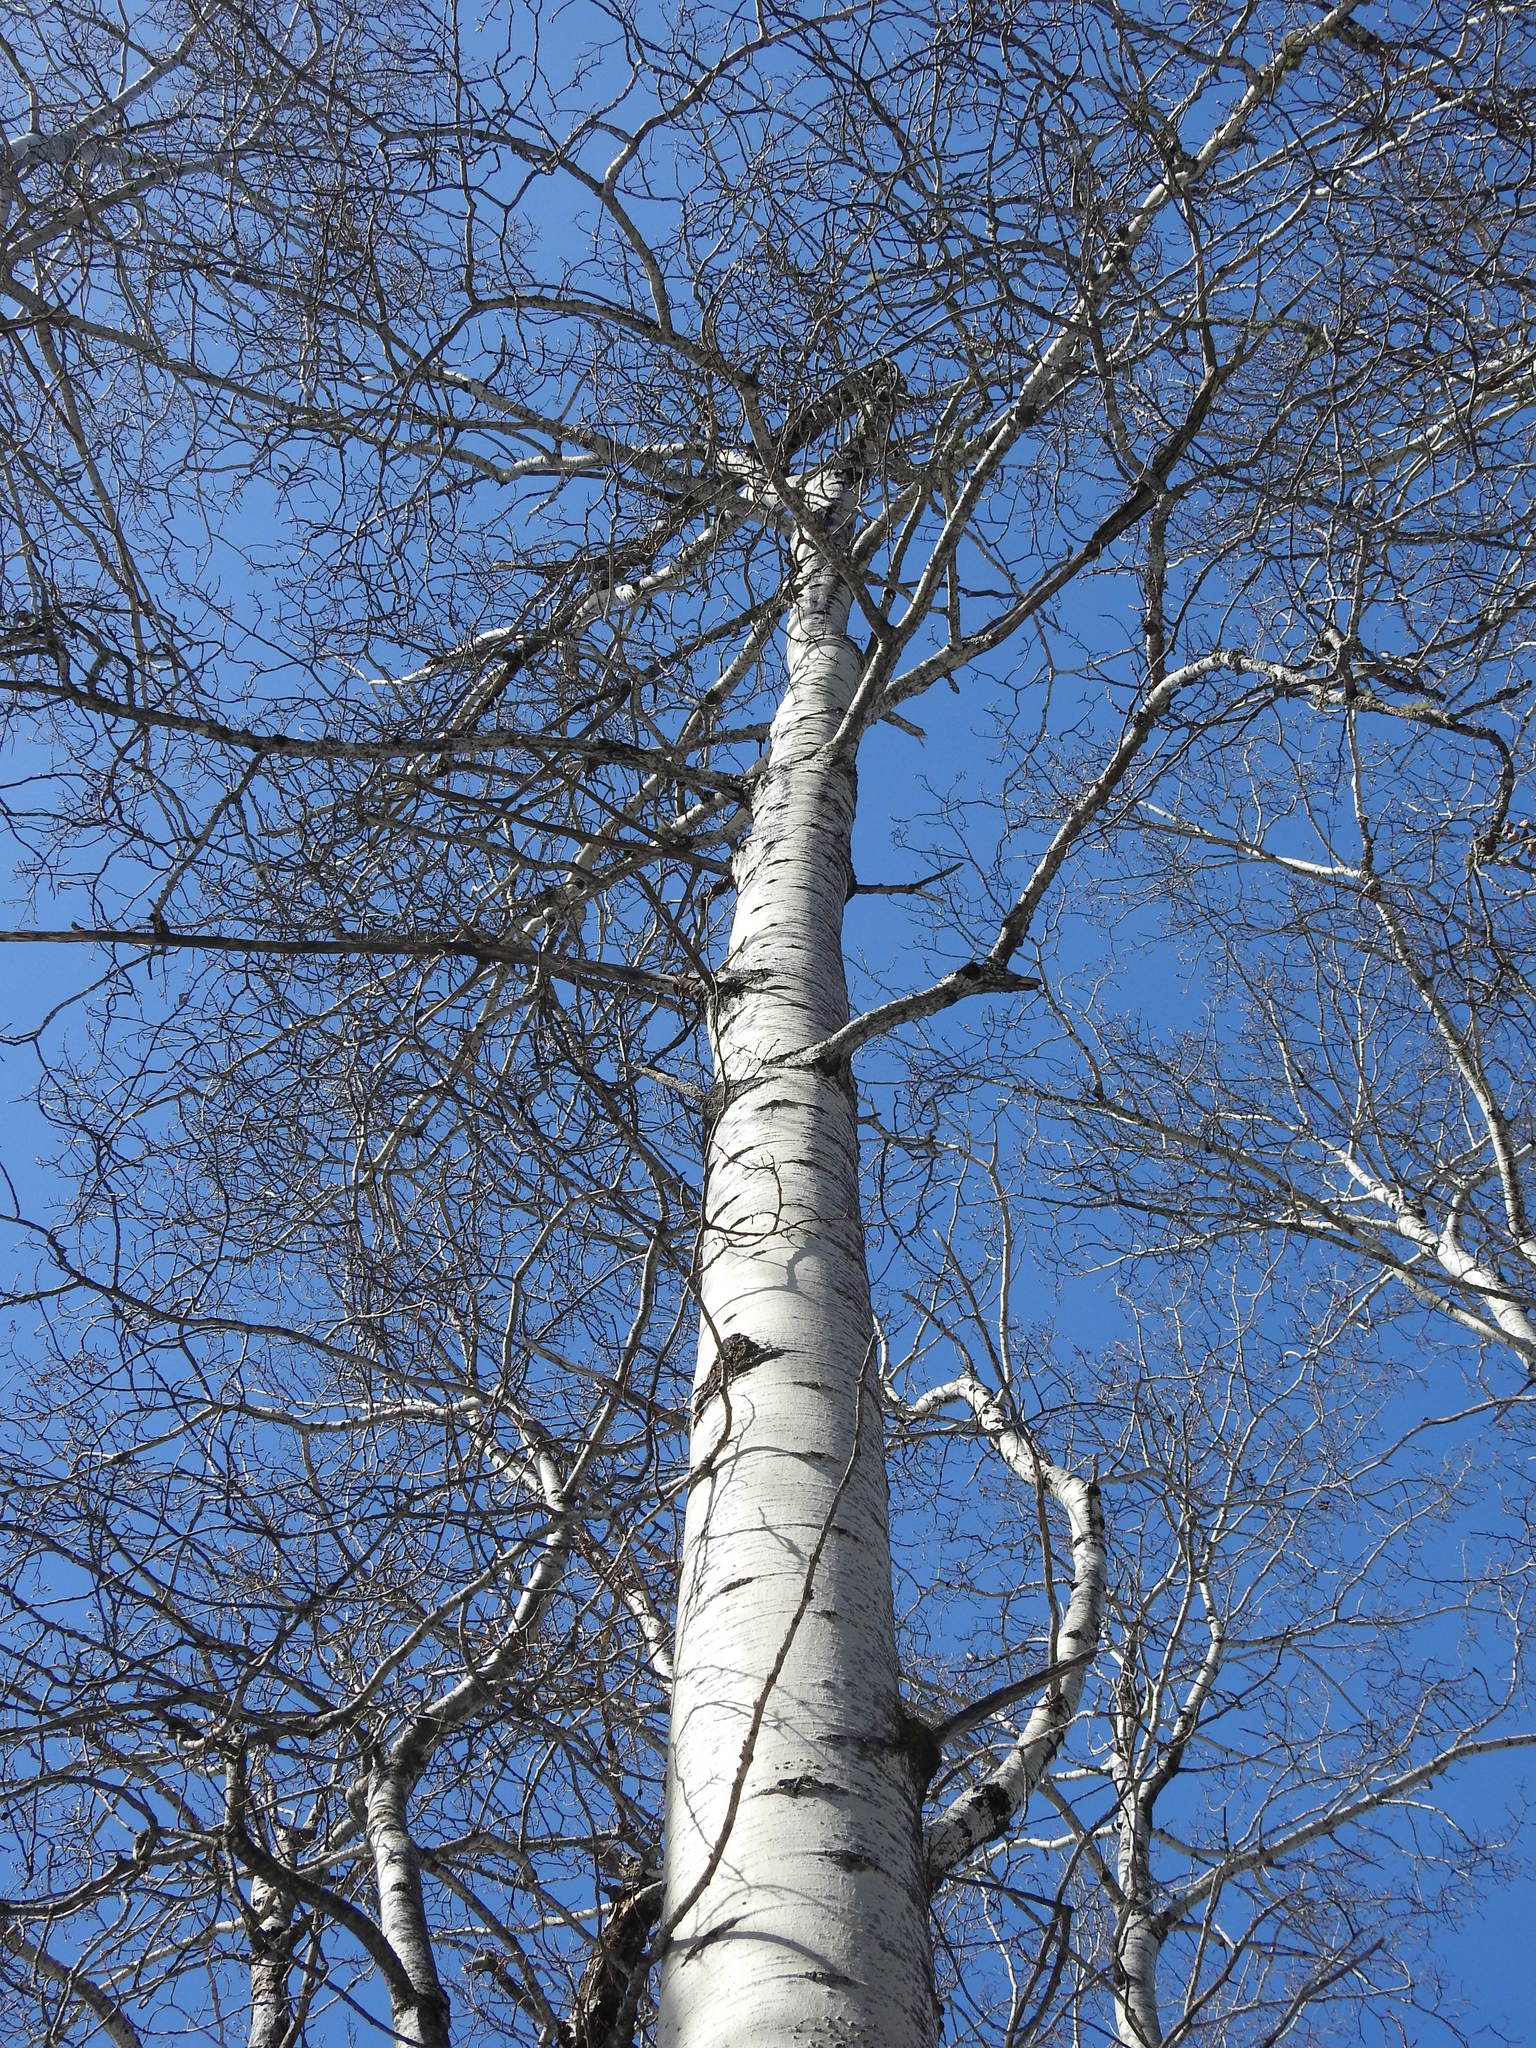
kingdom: Plantae
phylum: Tracheophyta
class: Magnoliopsida
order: Malpighiales
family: Salicaceae
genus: Populus
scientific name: Populus tremuloides
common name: Quaking aspen
